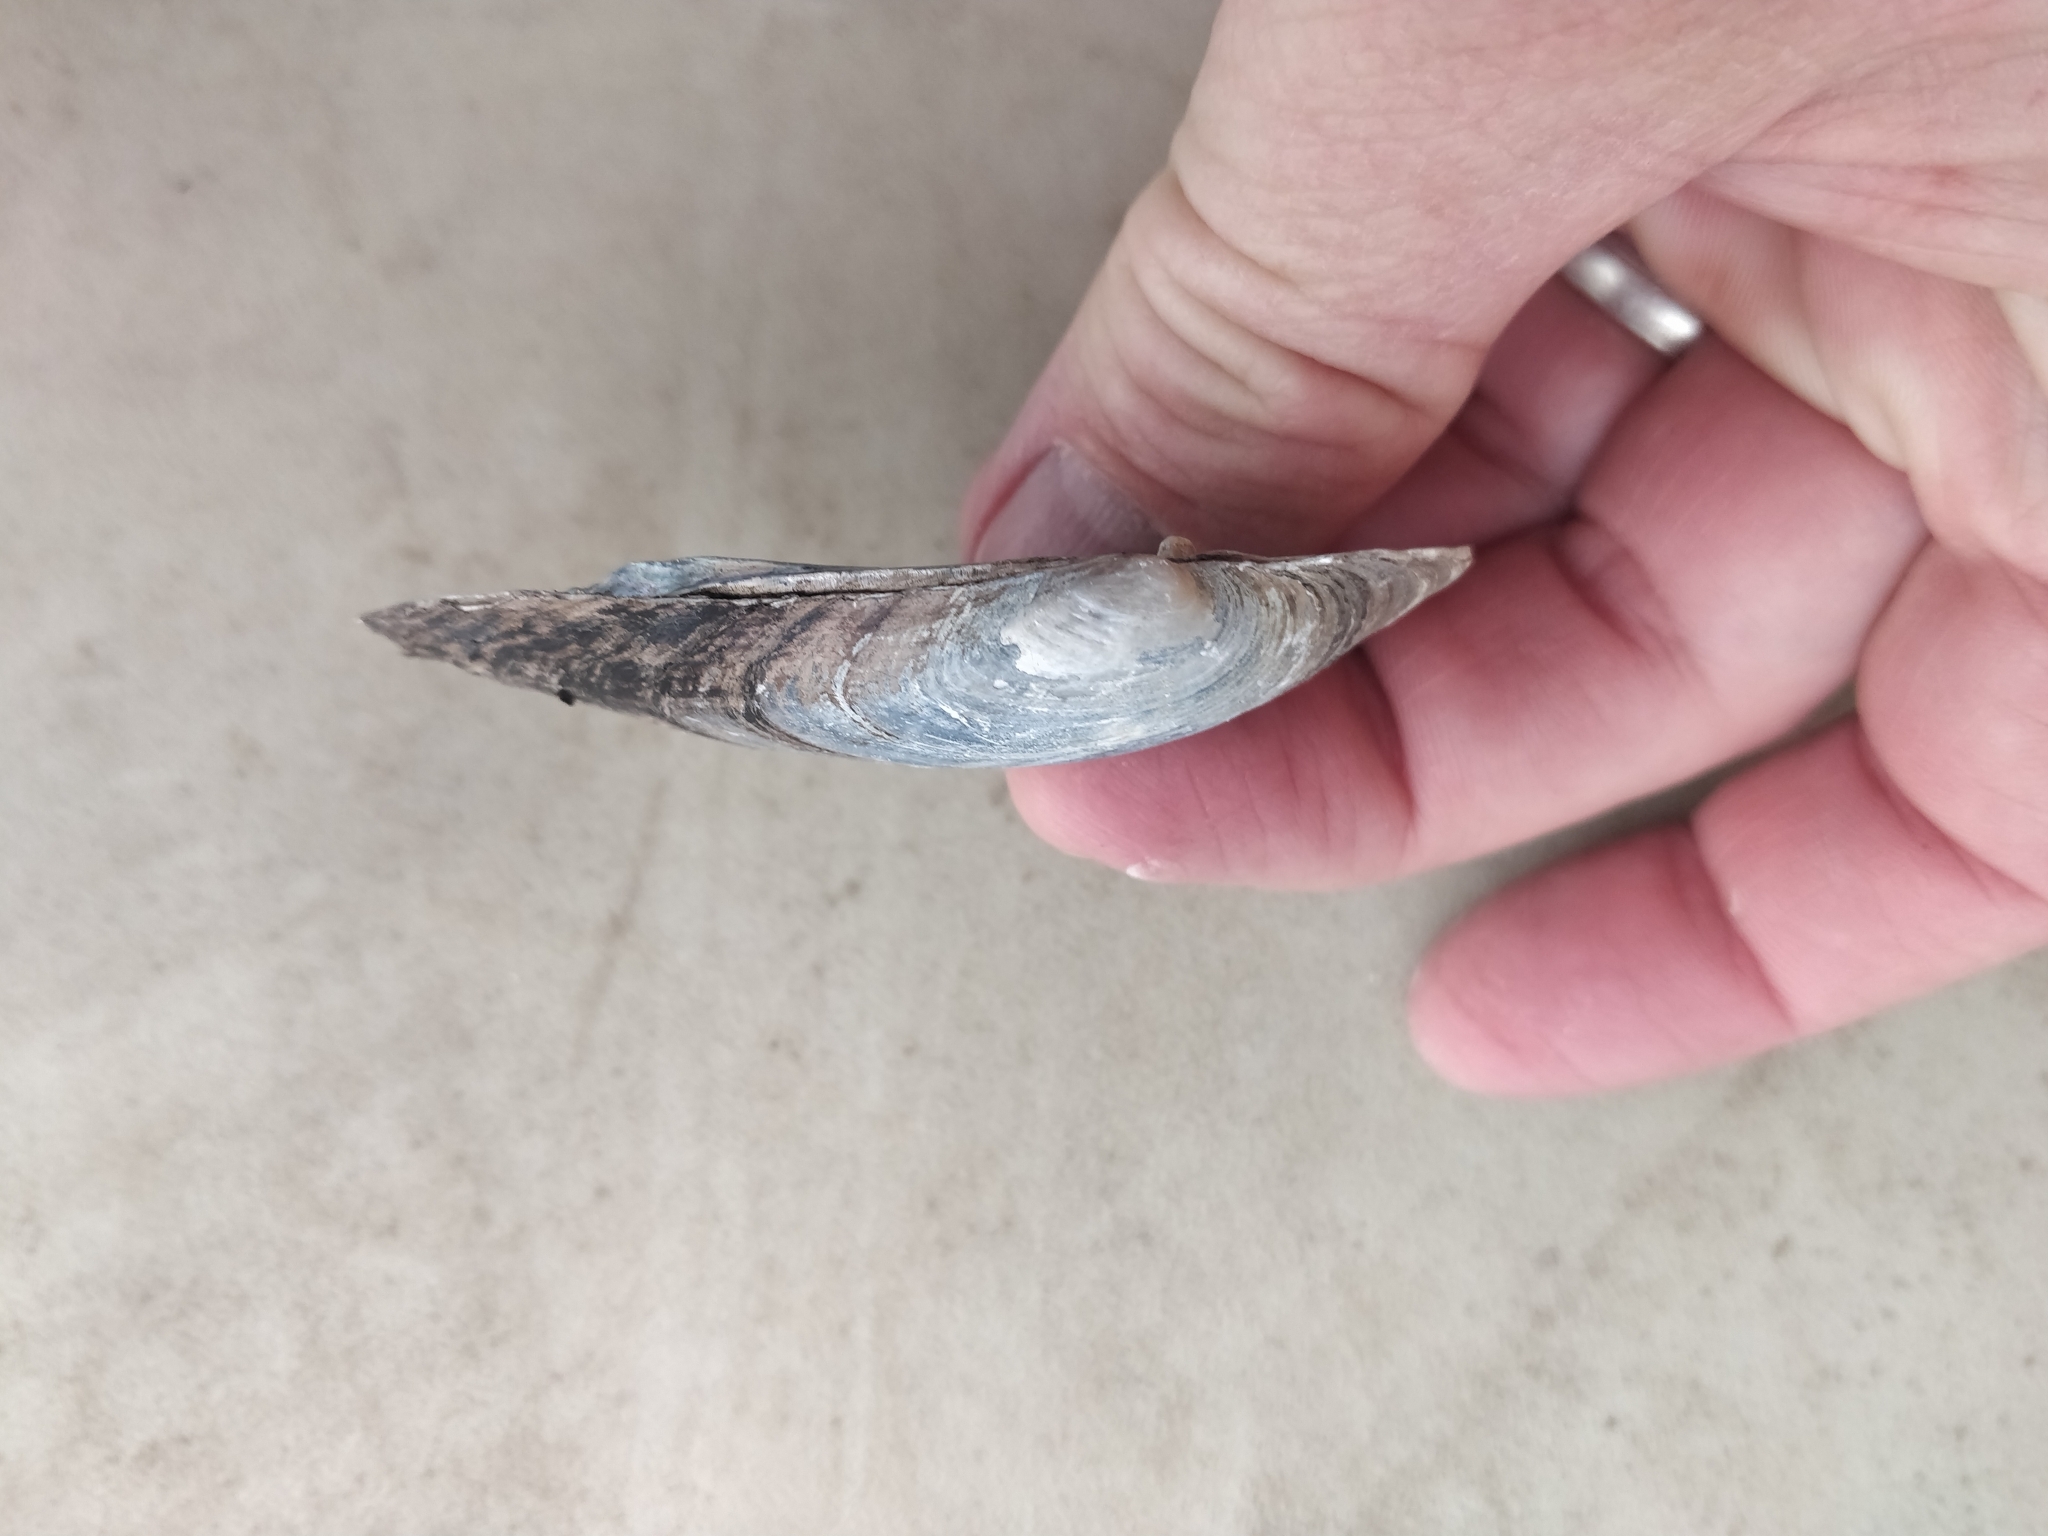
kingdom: Animalia
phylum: Mollusca
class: Bivalvia
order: Unionida
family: Unionidae
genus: Lampsilis
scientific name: Lampsilis siliquoidea
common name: Fatmucket
